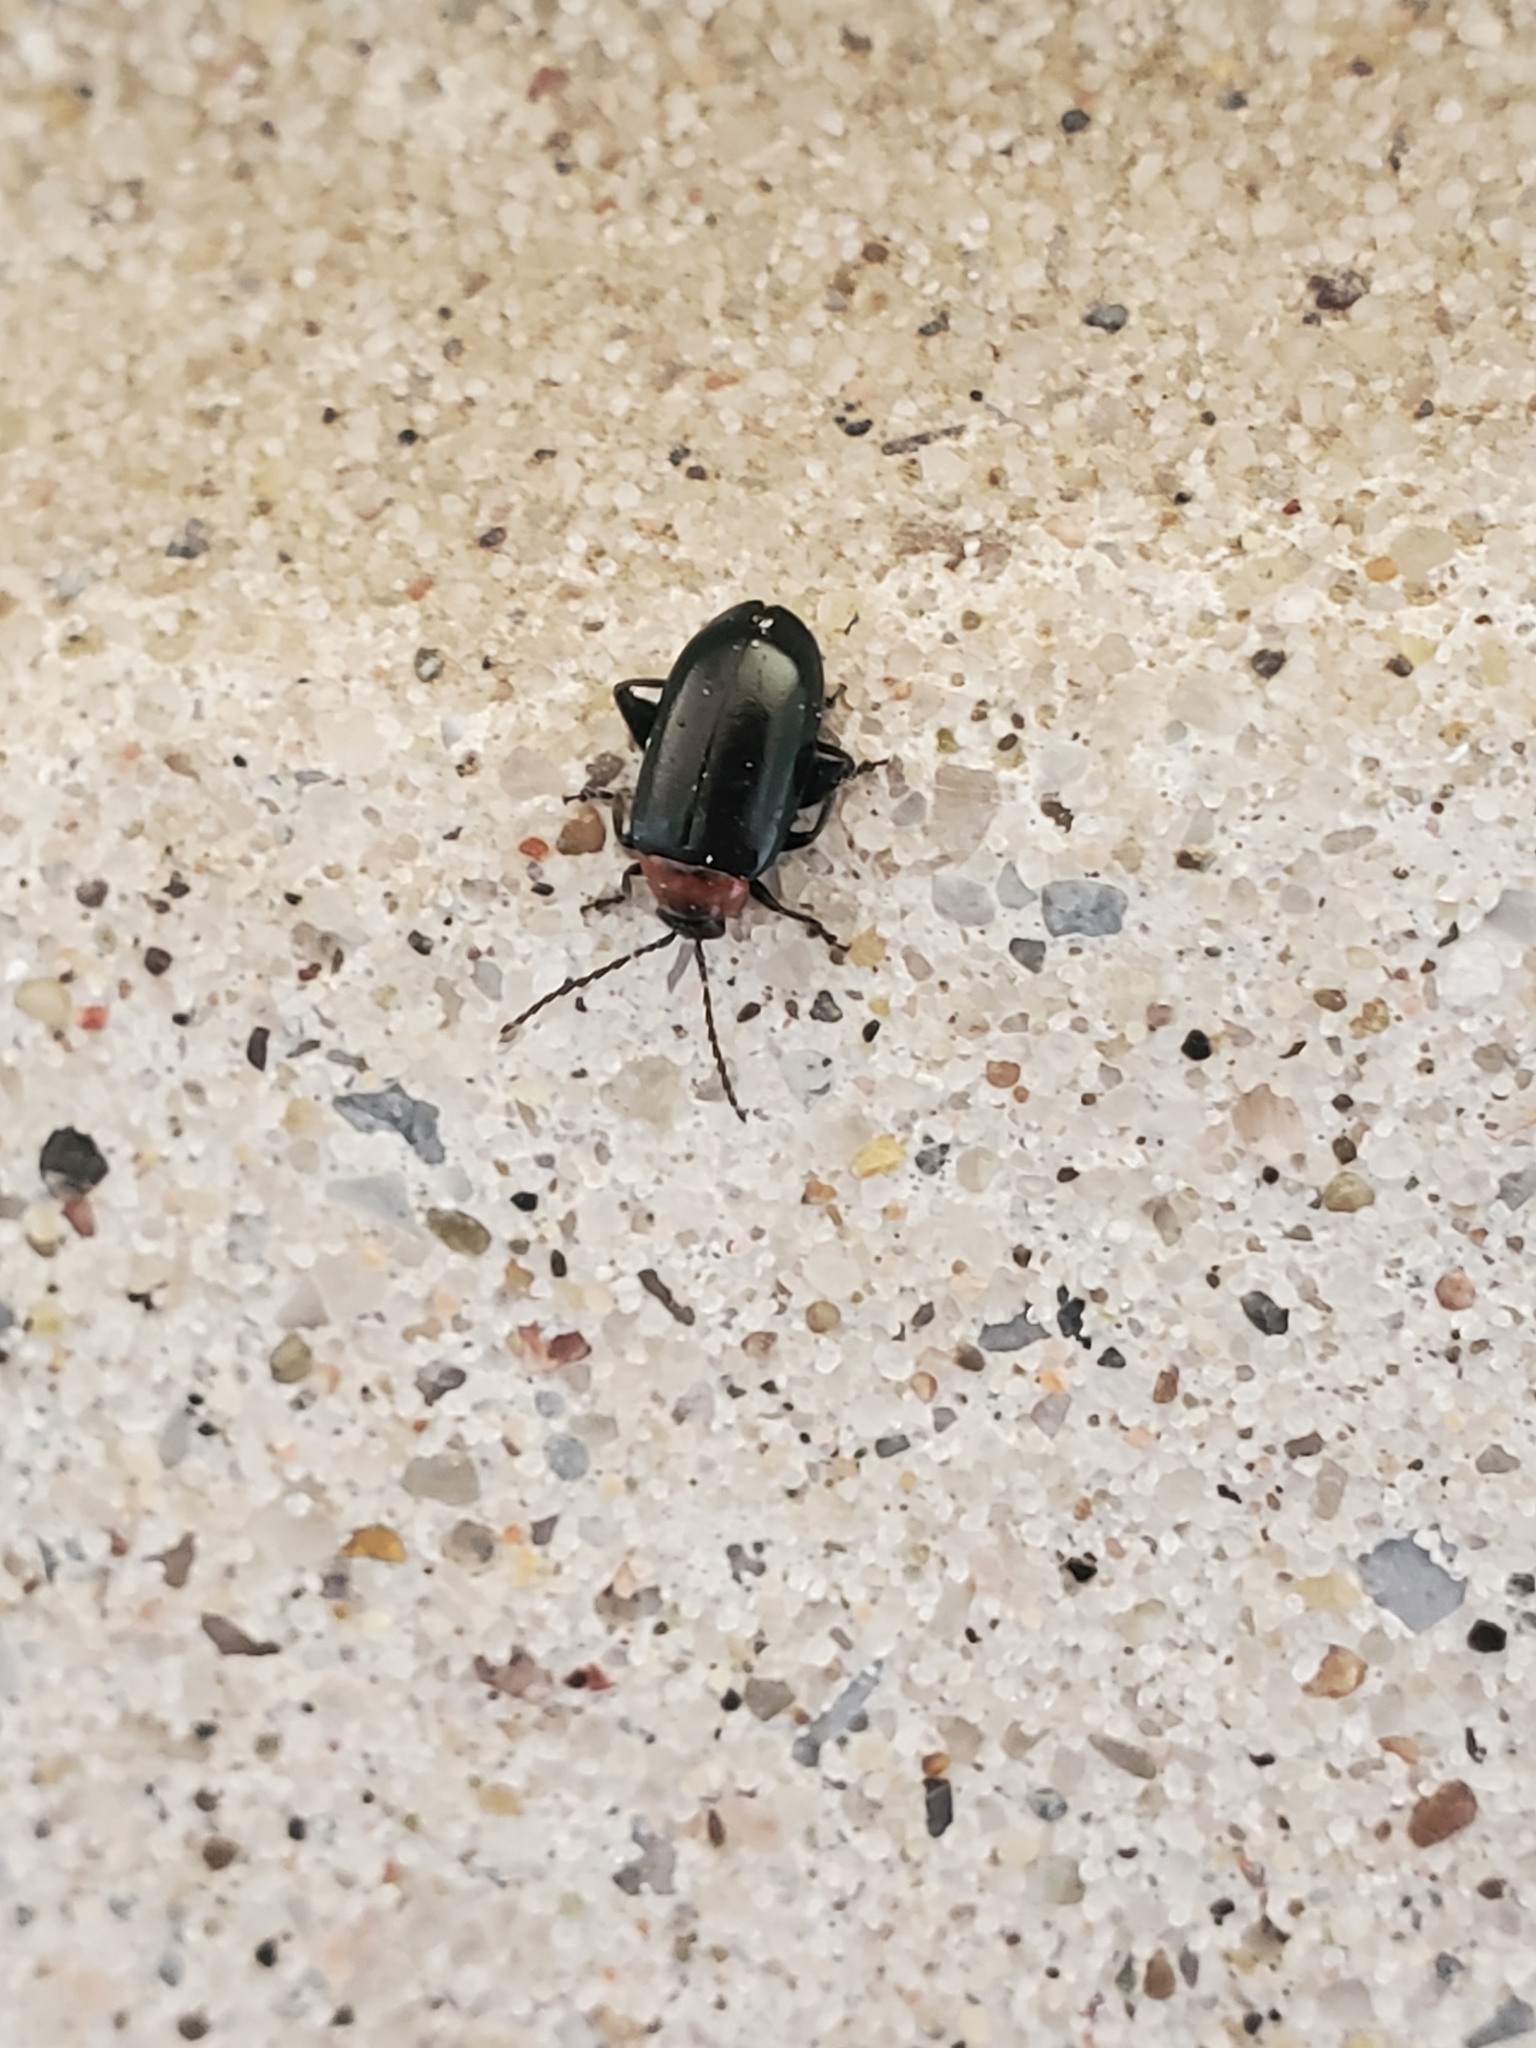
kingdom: Animalia
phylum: Arthropoda
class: Insecta
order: Coleoptera
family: Chrysomelidae
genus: Disonycha
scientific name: Disonycha xanthomelas
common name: Spinach flea beetle
